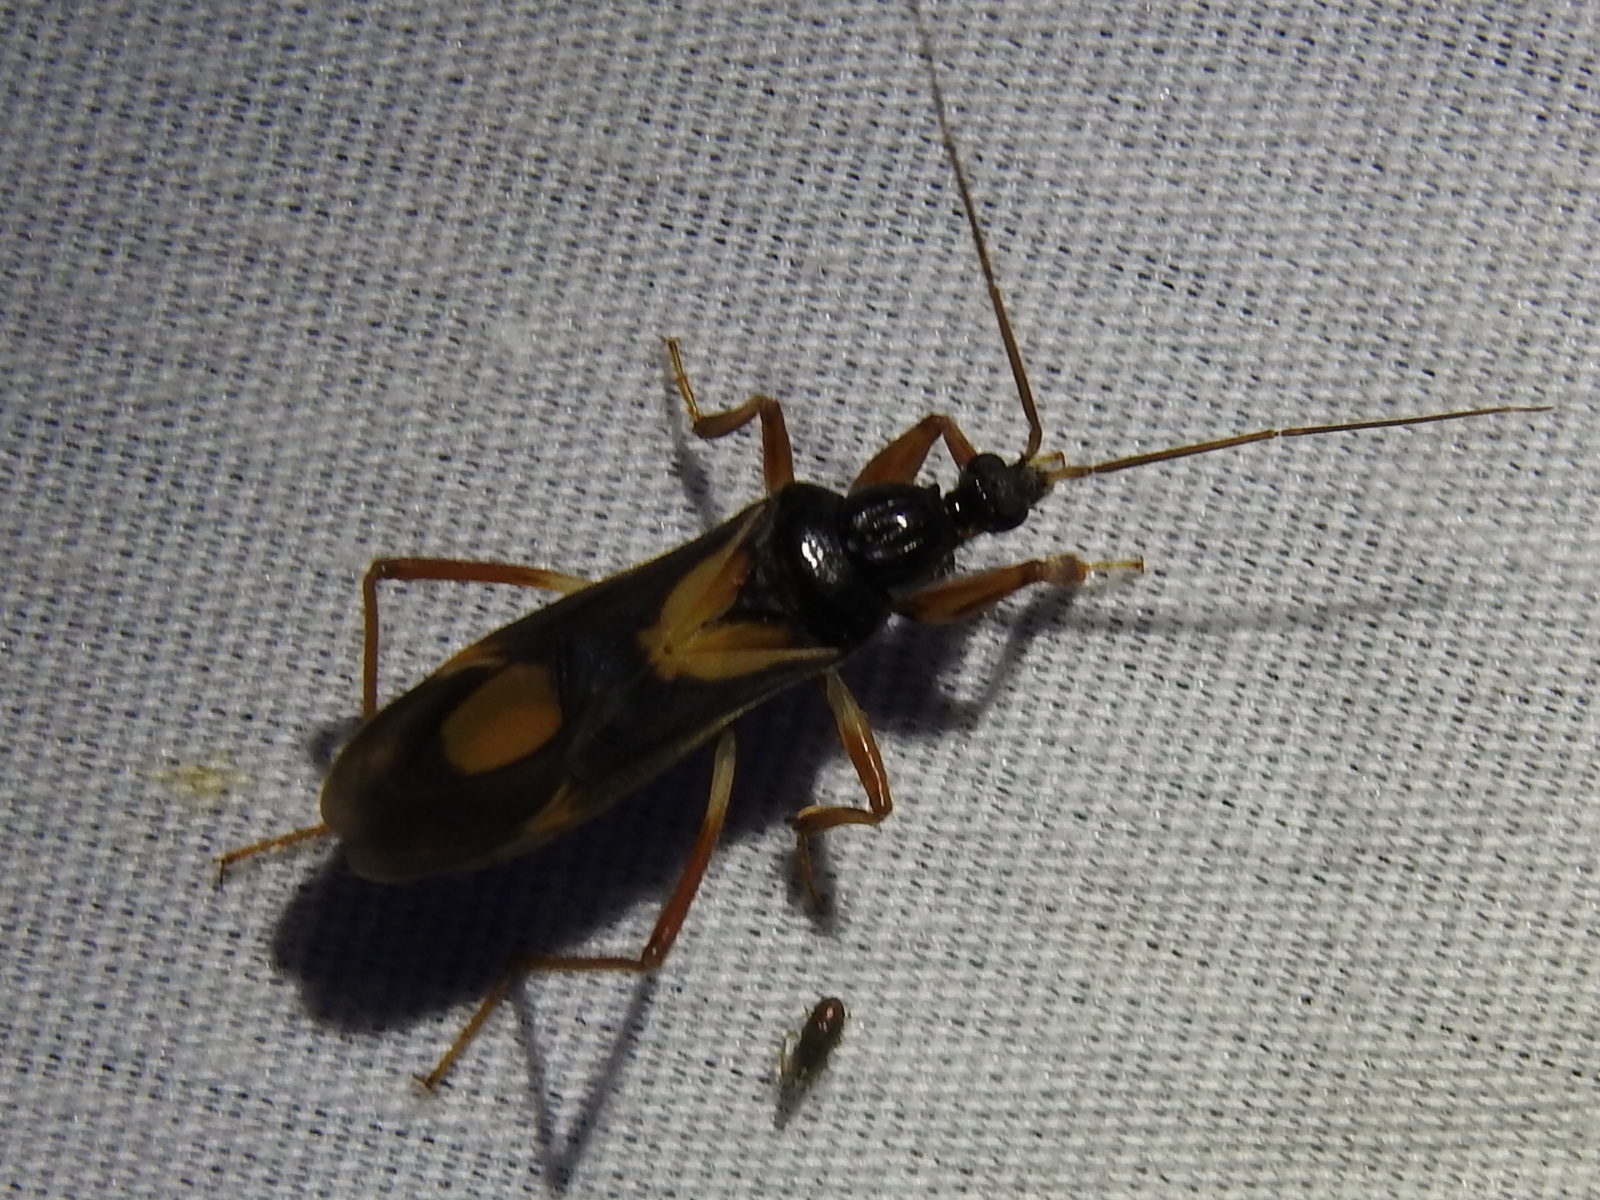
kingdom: Animalia
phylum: Arthropoda
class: Insecta
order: Hemiptera
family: Reduviidae
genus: Rasahus
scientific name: Rasahus hamatus
